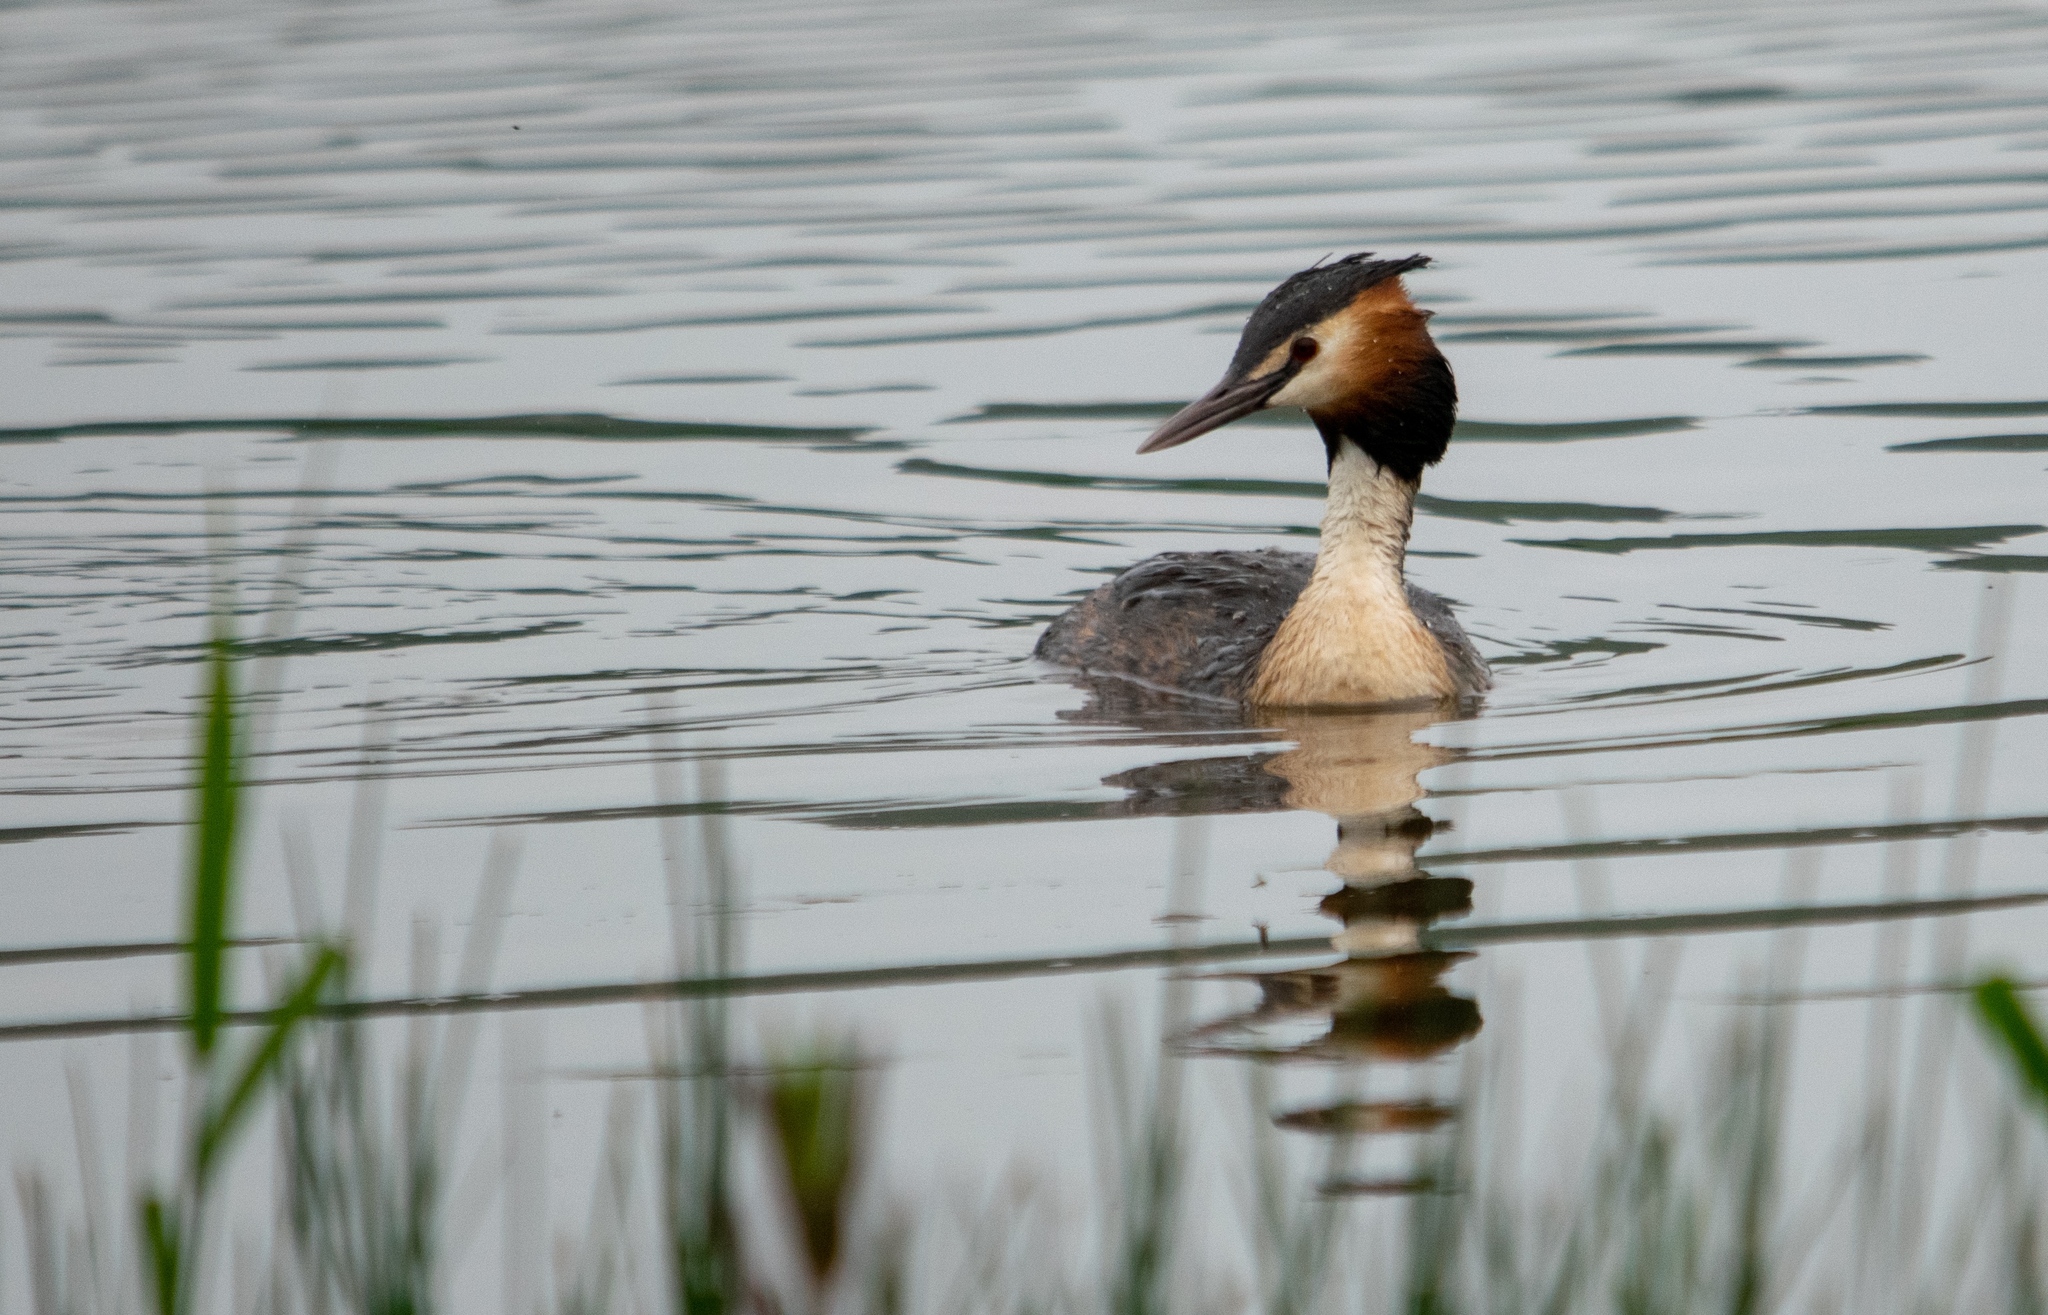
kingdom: Animalia
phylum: Chordata
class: Aves
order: Podicipediformes
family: Podicipedidae
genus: Podiceps
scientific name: Podiceps cristatus
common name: Great crested grebe
